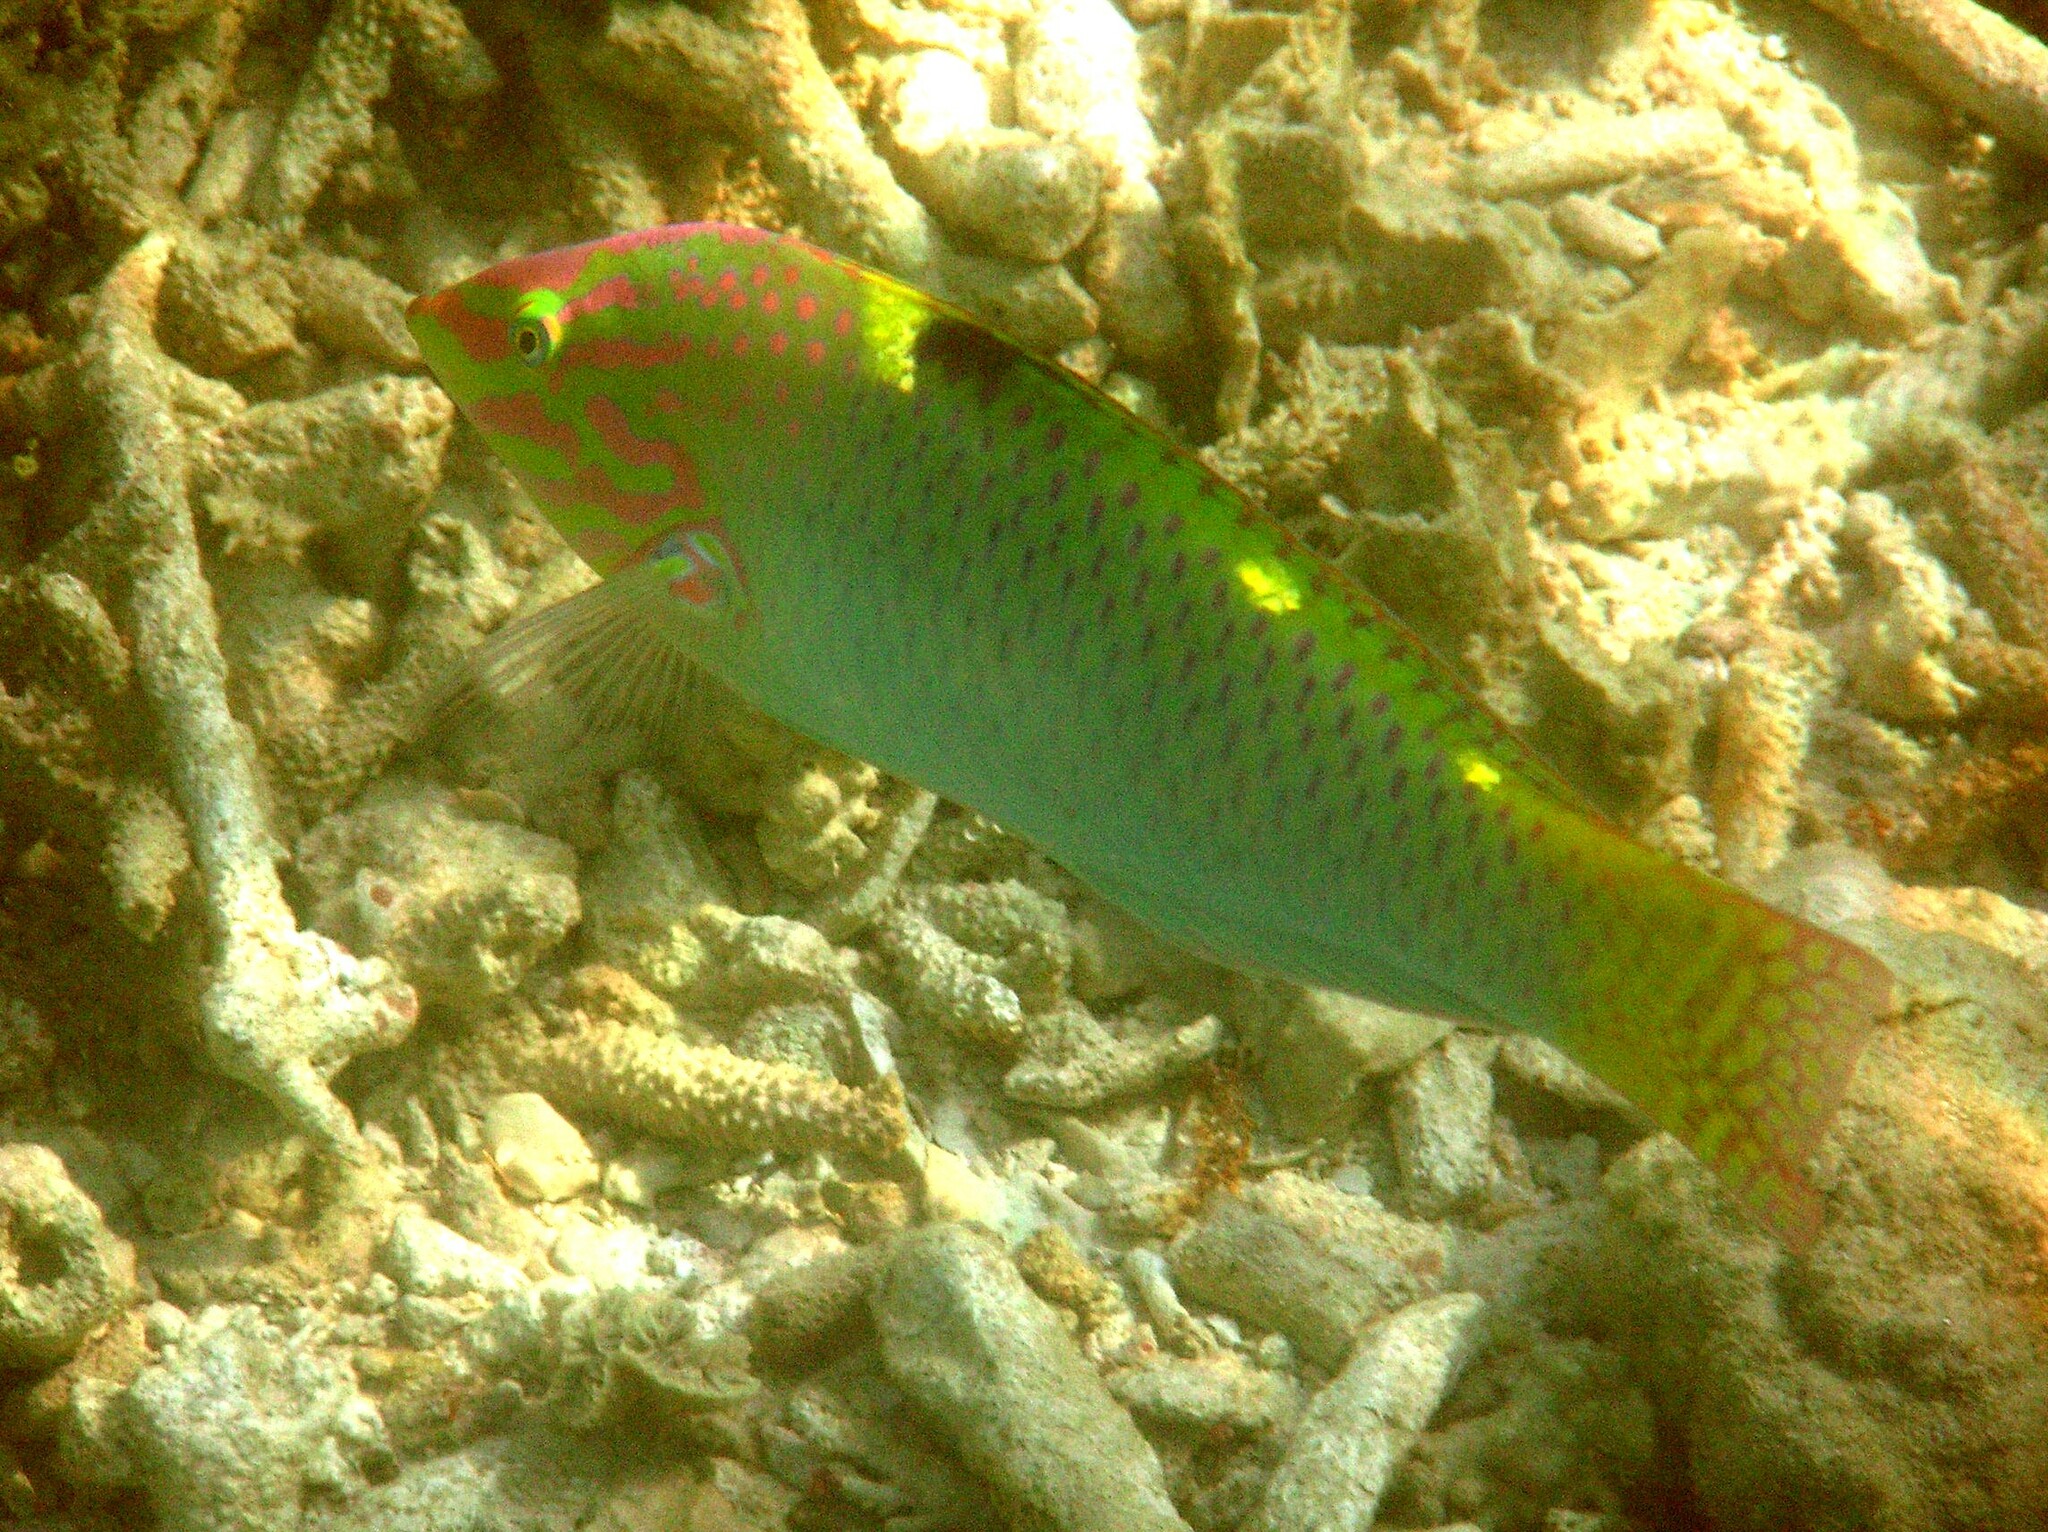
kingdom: Animalia
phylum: Chordata
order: Perciformes
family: Labridae
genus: Halichoeres
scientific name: Halichoeres hortulanus
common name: Checkerboard wrasse
